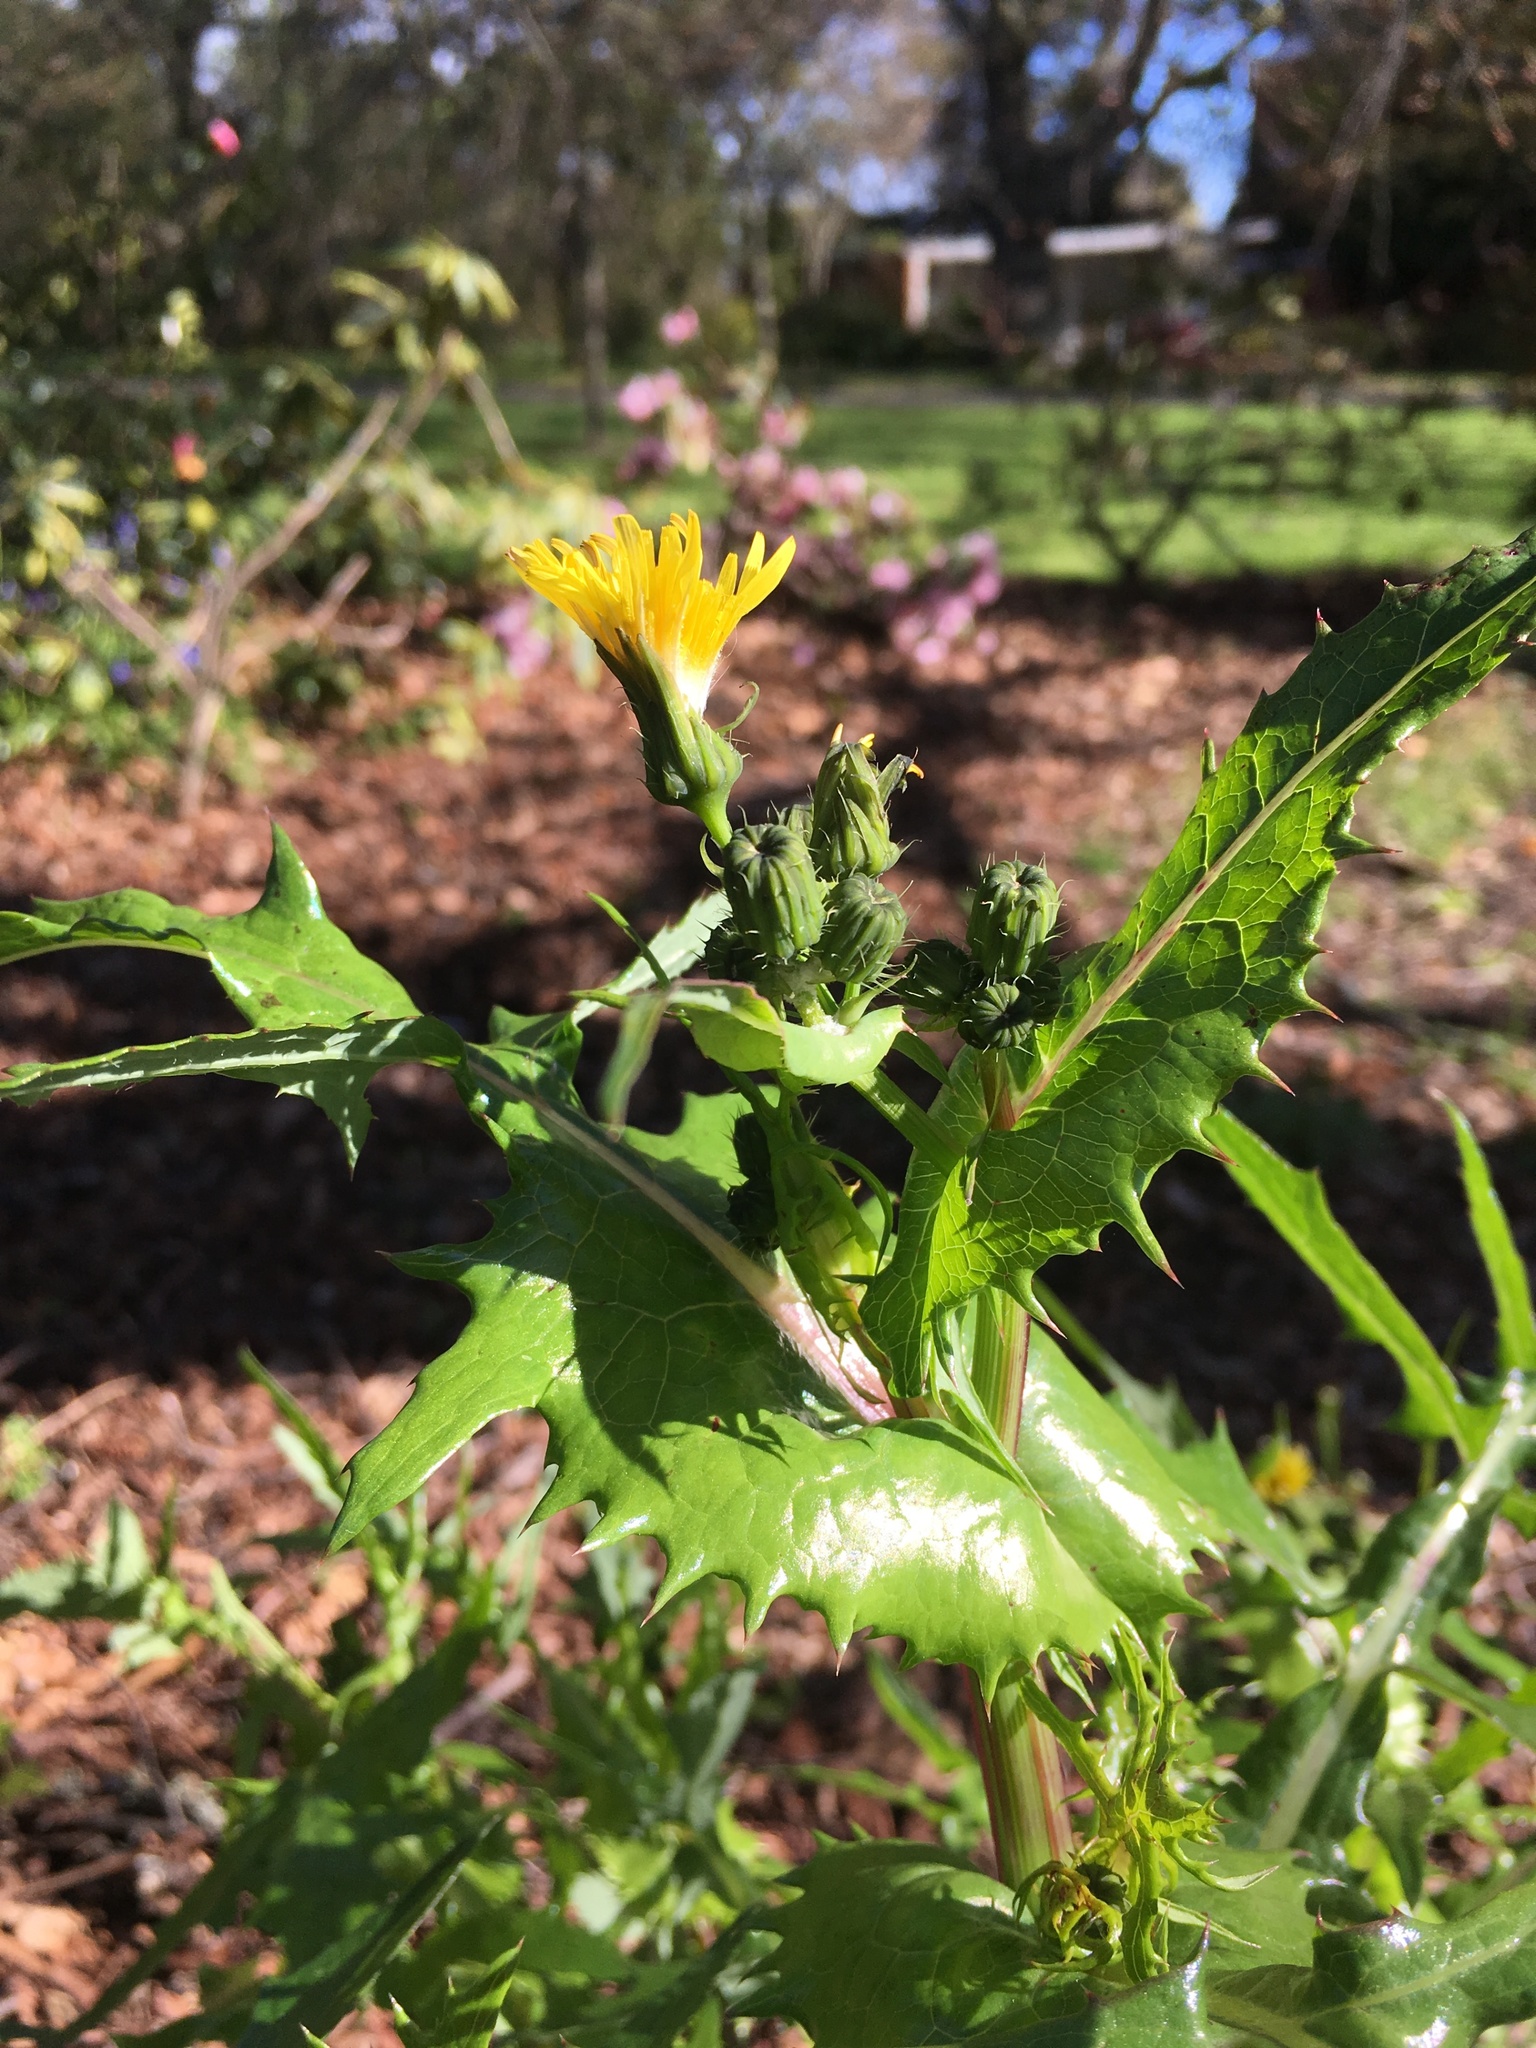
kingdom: Plantae
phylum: Tracheophyta
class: Magnoliopsida
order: Asterales
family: Asteraceae
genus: Sonchus
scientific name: Sonchus asper
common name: Prickly sow-thistle
